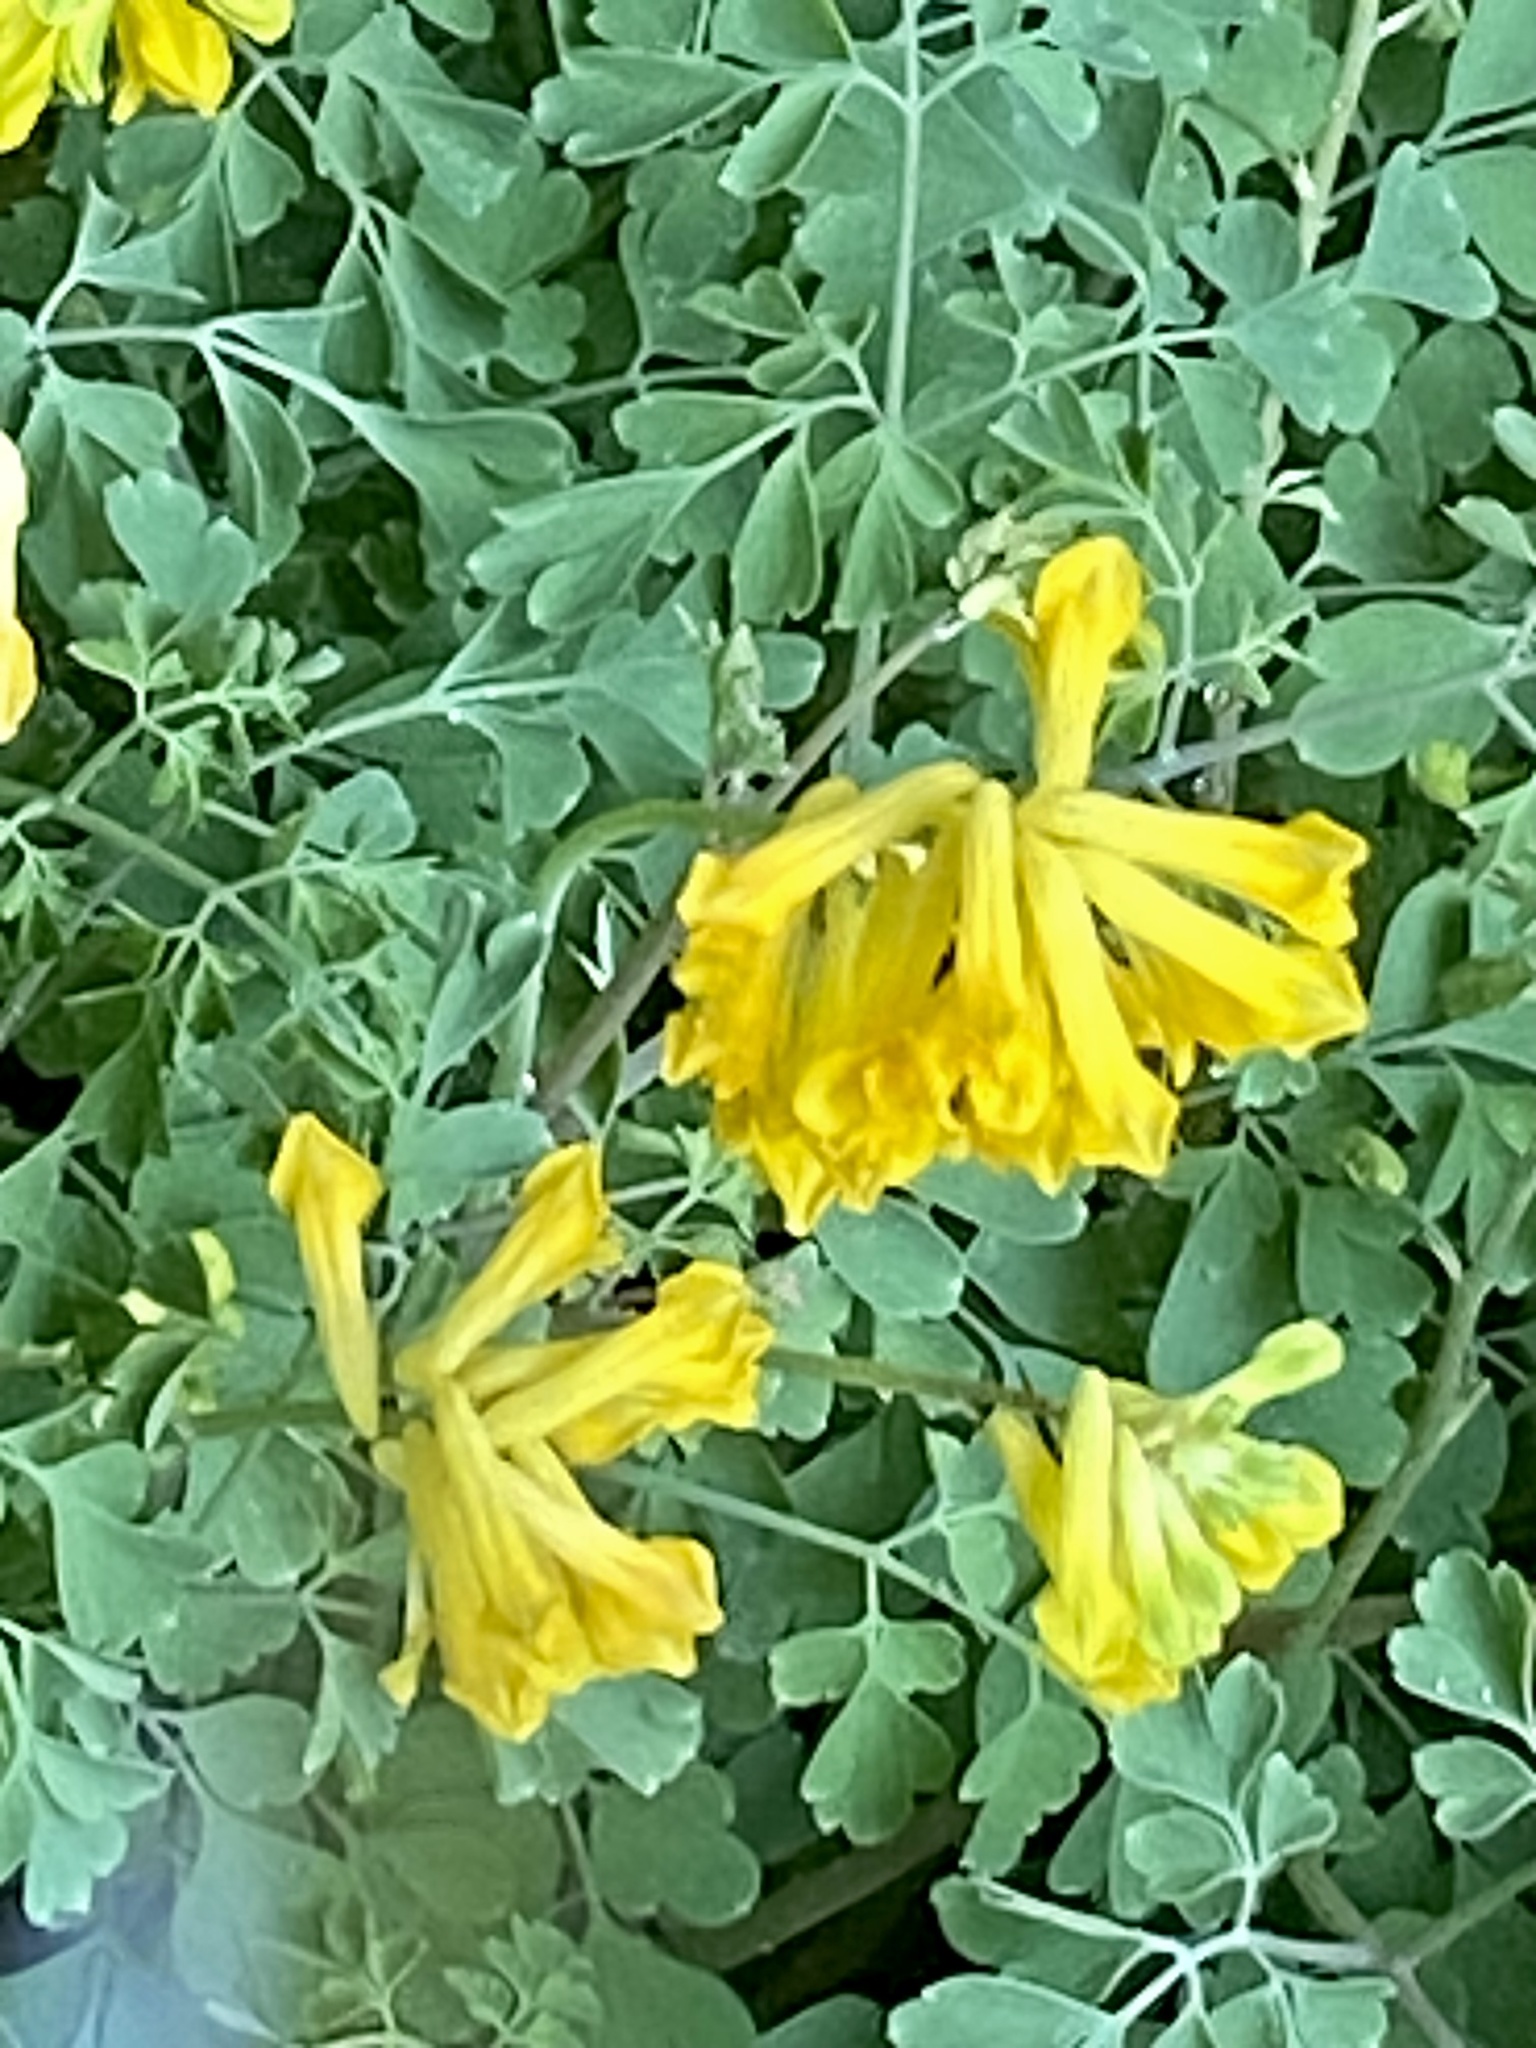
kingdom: Plantae
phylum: Tracheophyta
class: Magnoliopsida
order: Ranunculales
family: Papaveraceae
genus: Pseudofumaria
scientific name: Pseudofumaria lutea
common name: Yellow corydalis
